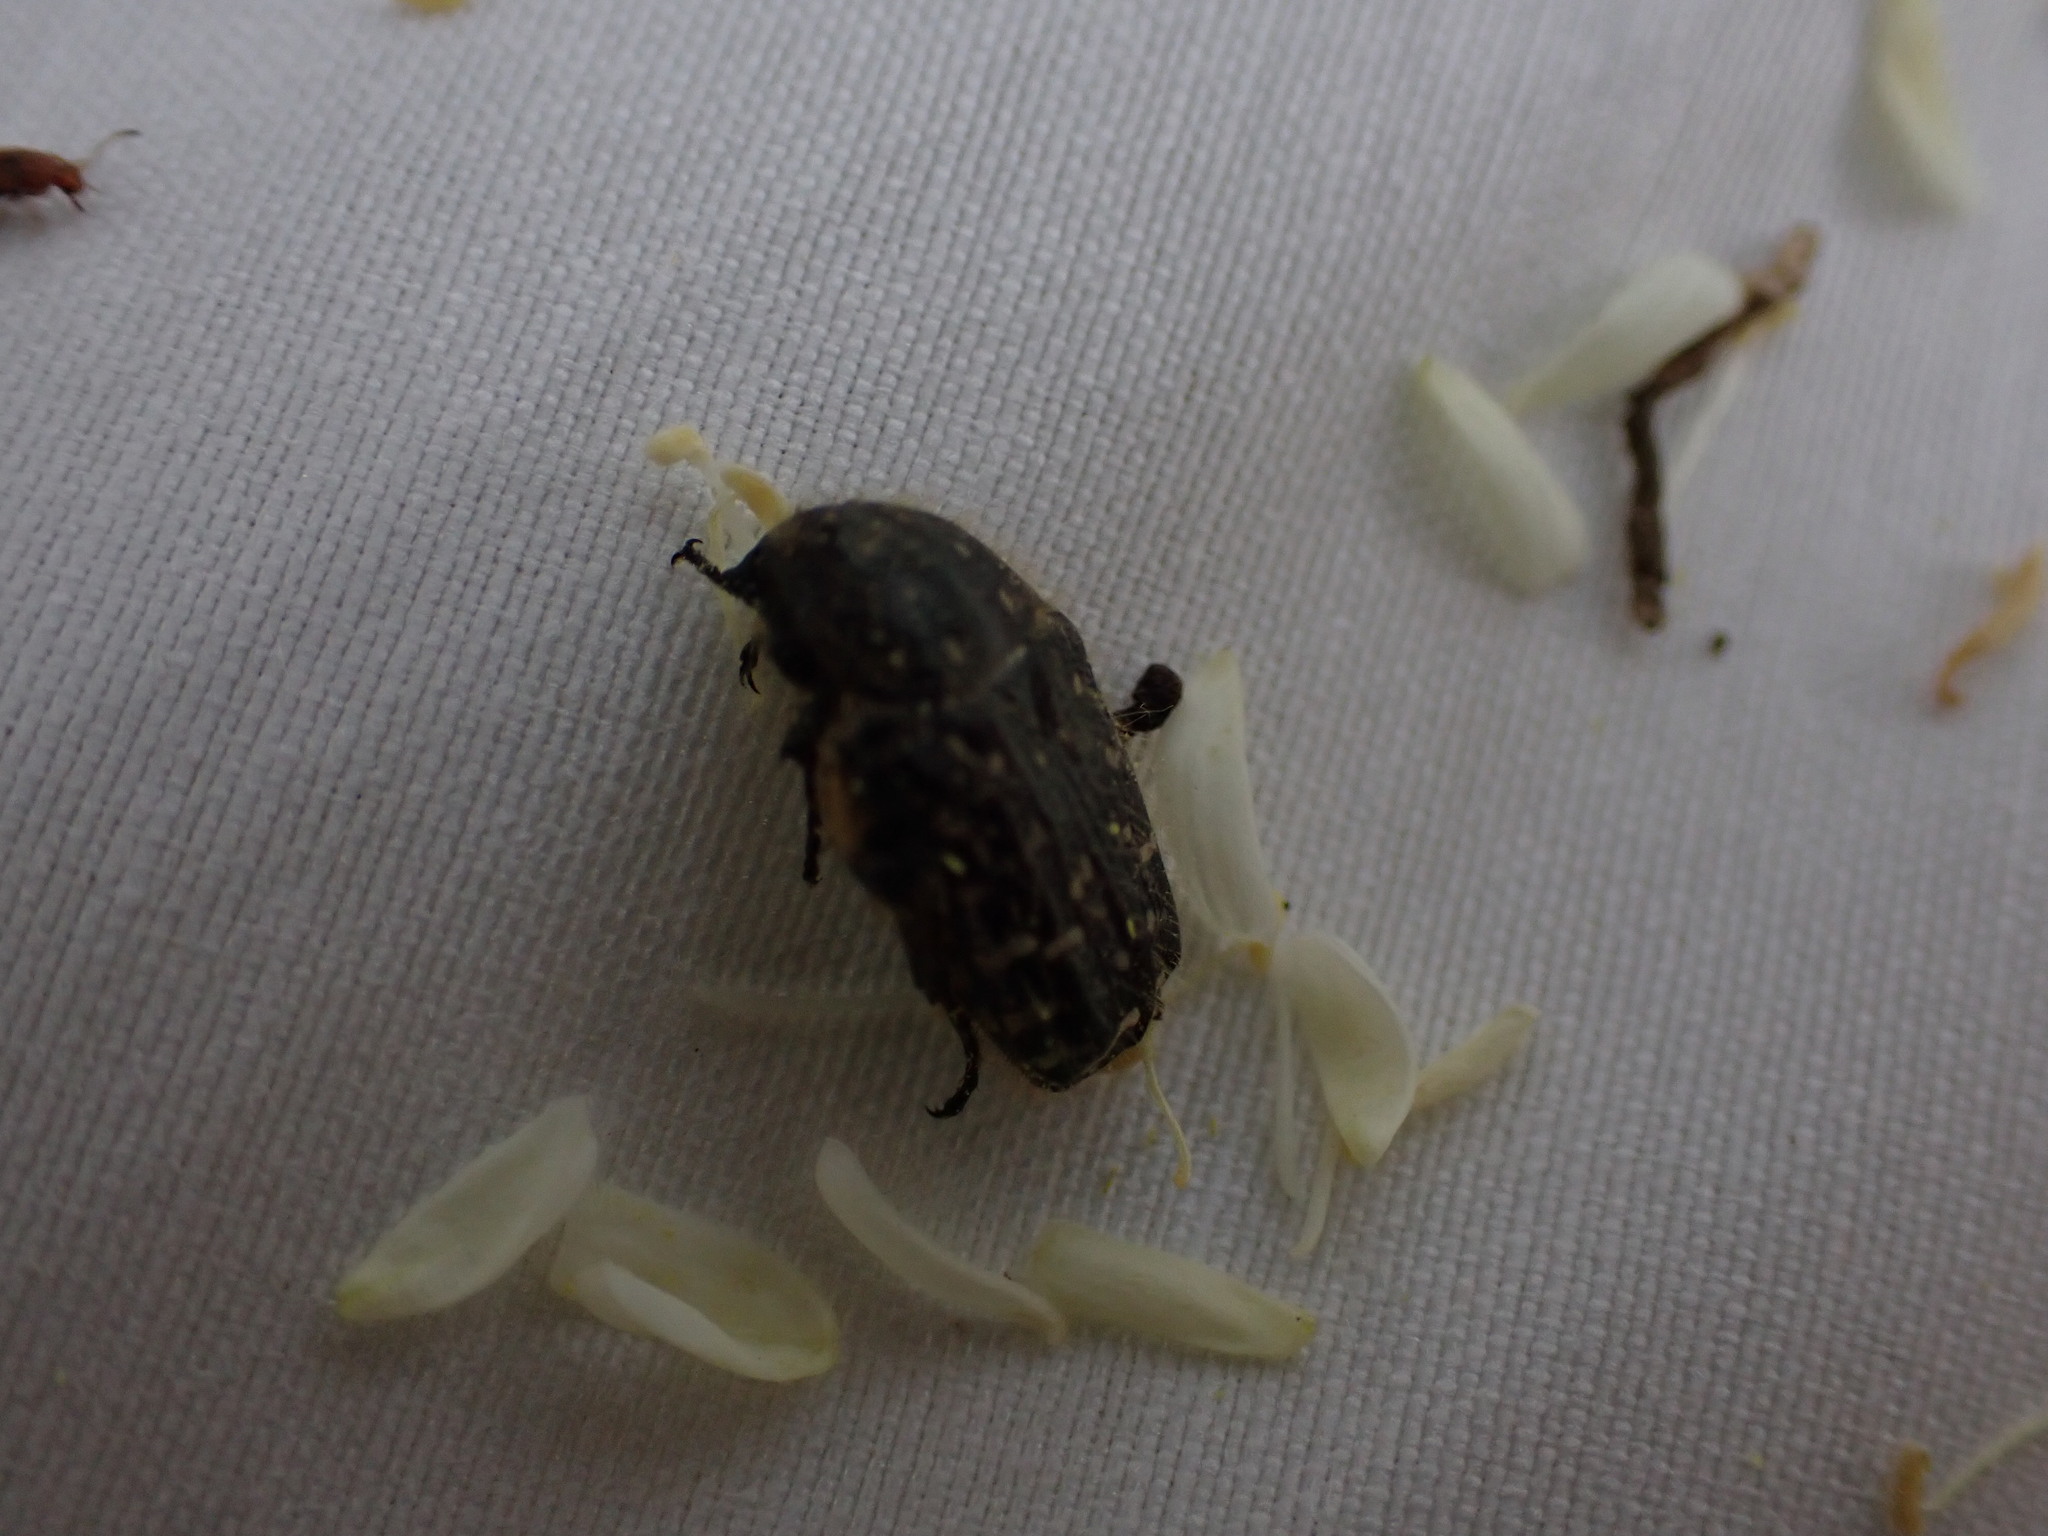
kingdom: Animalia
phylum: Arthropoda
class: Insecta
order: Coleoptera
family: Scarabaeidae
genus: Oxythyrea
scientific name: Oxythyrea funesta
